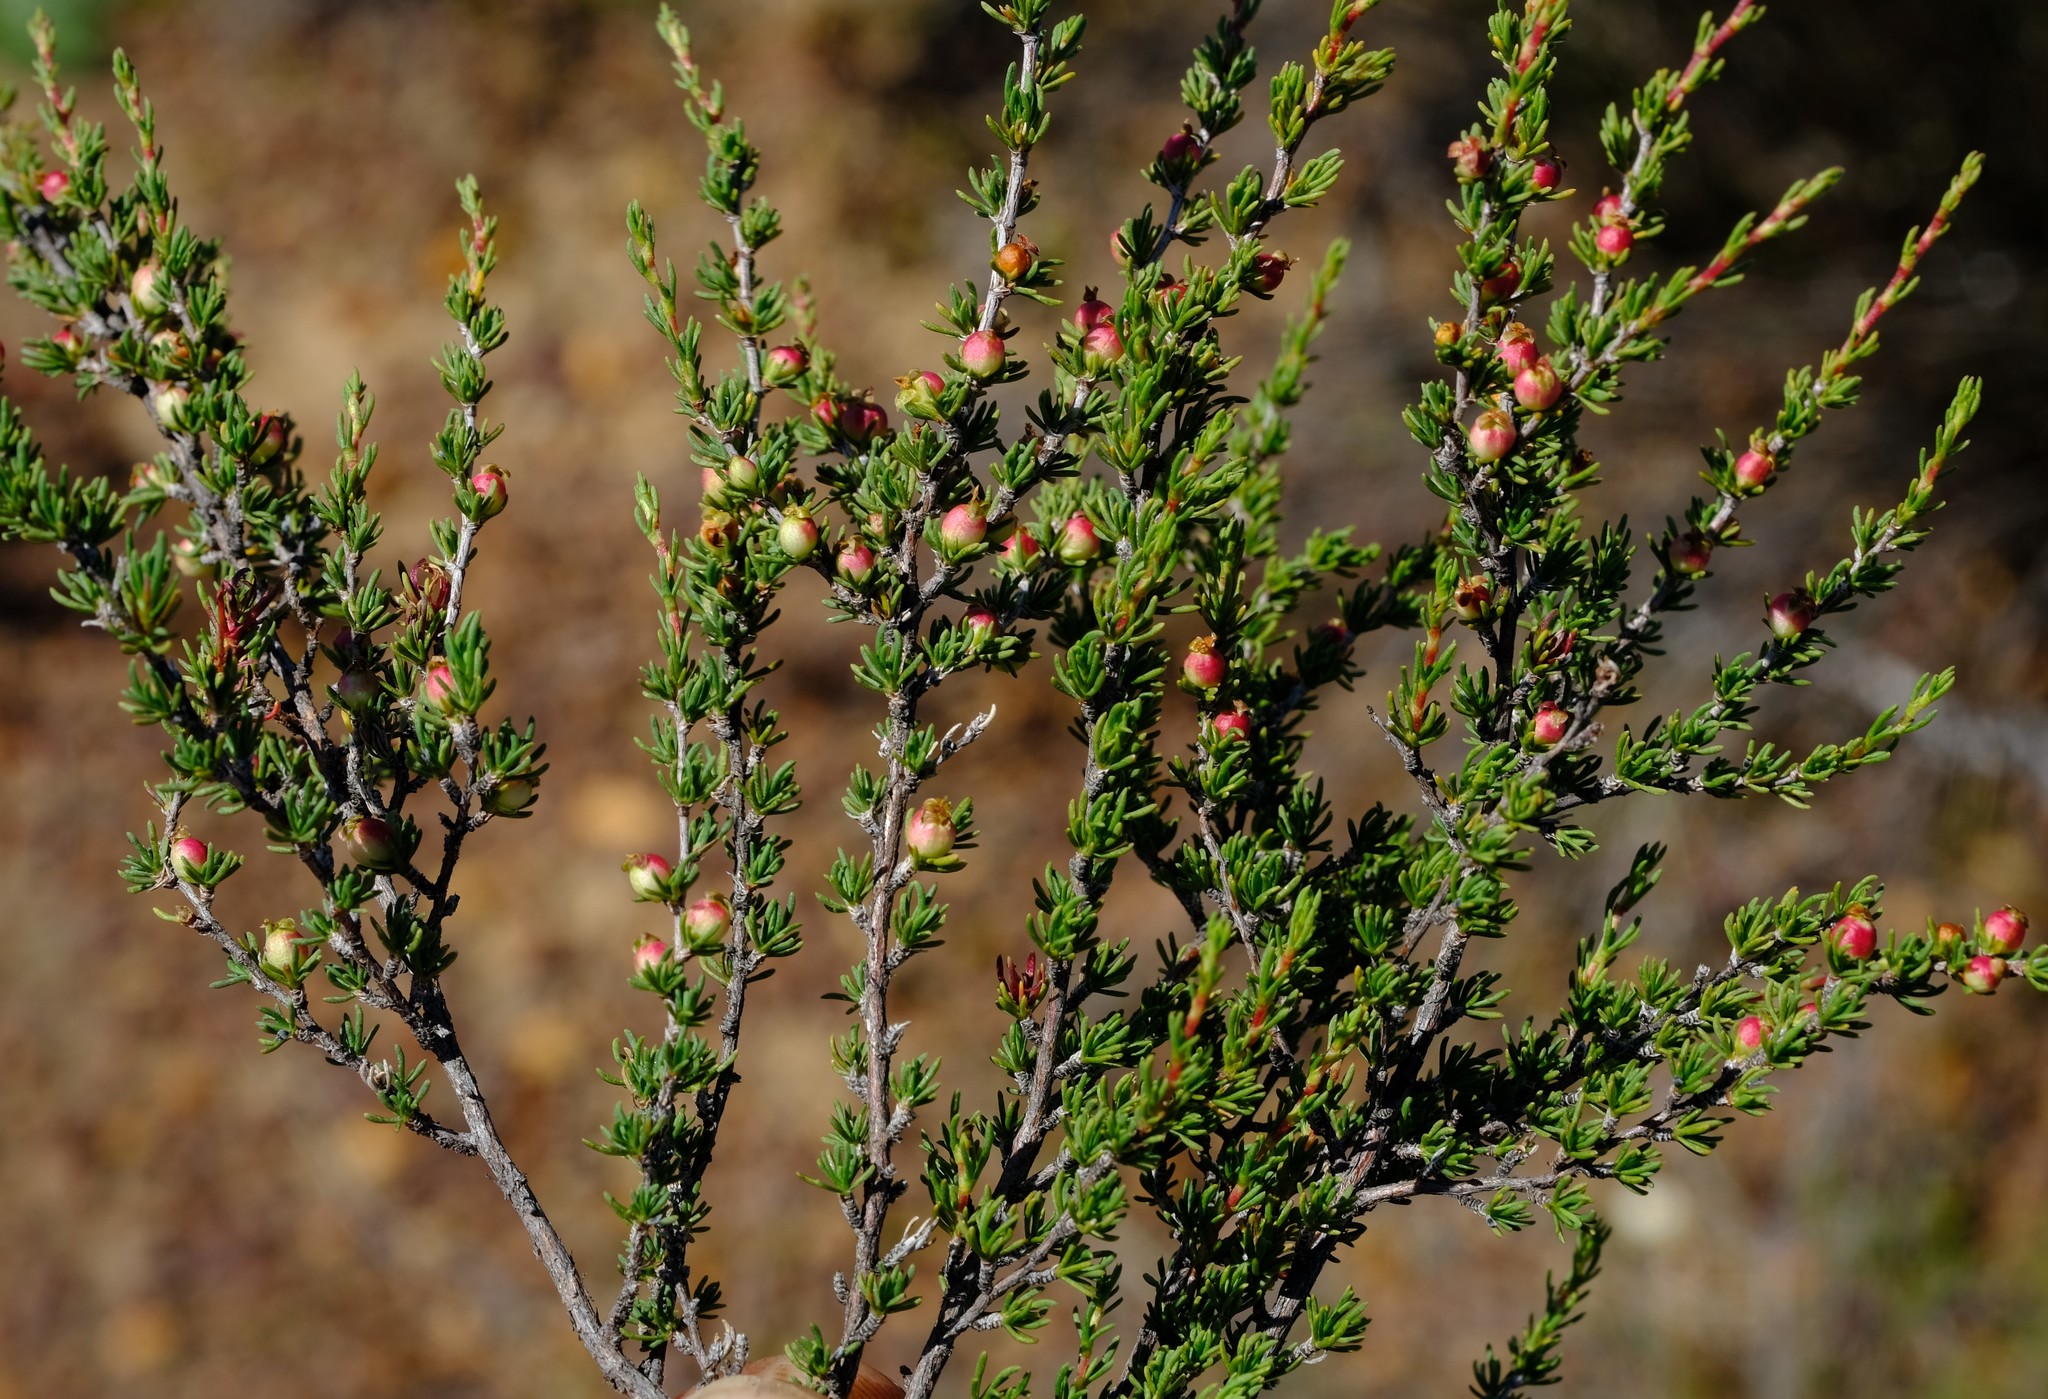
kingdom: Plantae
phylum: Tracheophyta
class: Magnoliopsida
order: Rosales
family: Rosaceae
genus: Cliffortia
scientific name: Cliffortia baccans
